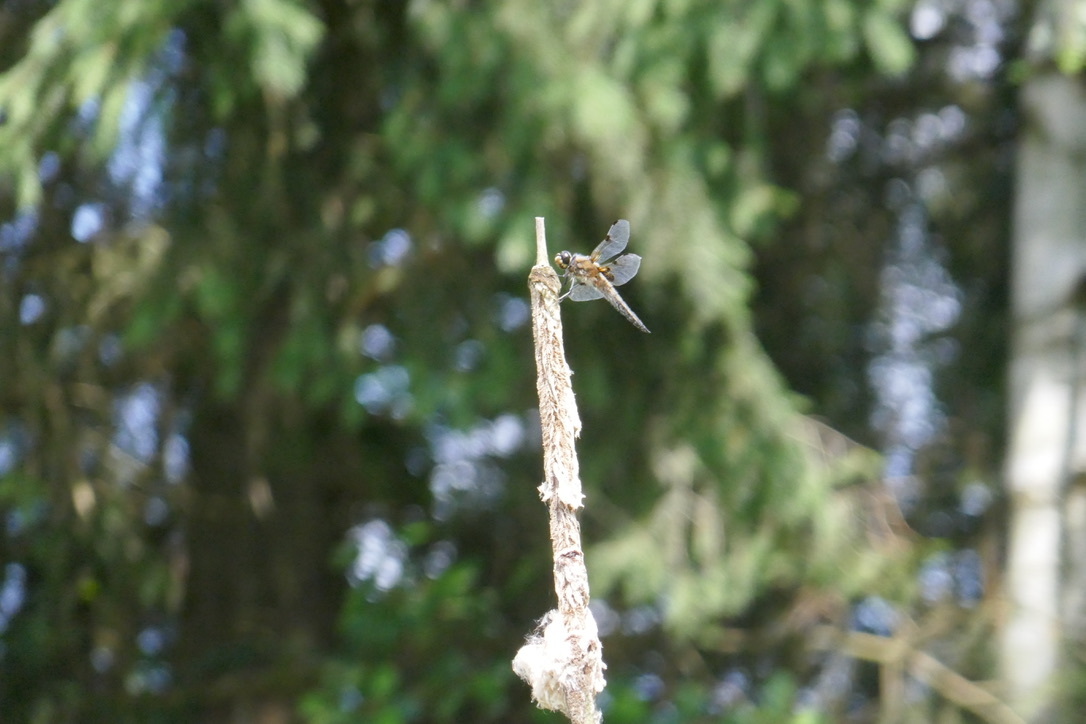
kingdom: Animalia
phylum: Arthropoda
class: Insecta
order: Odonata
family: Libellulidae
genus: Libellula
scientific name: Libellula quadrimaculata
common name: Four-spotted chaser
